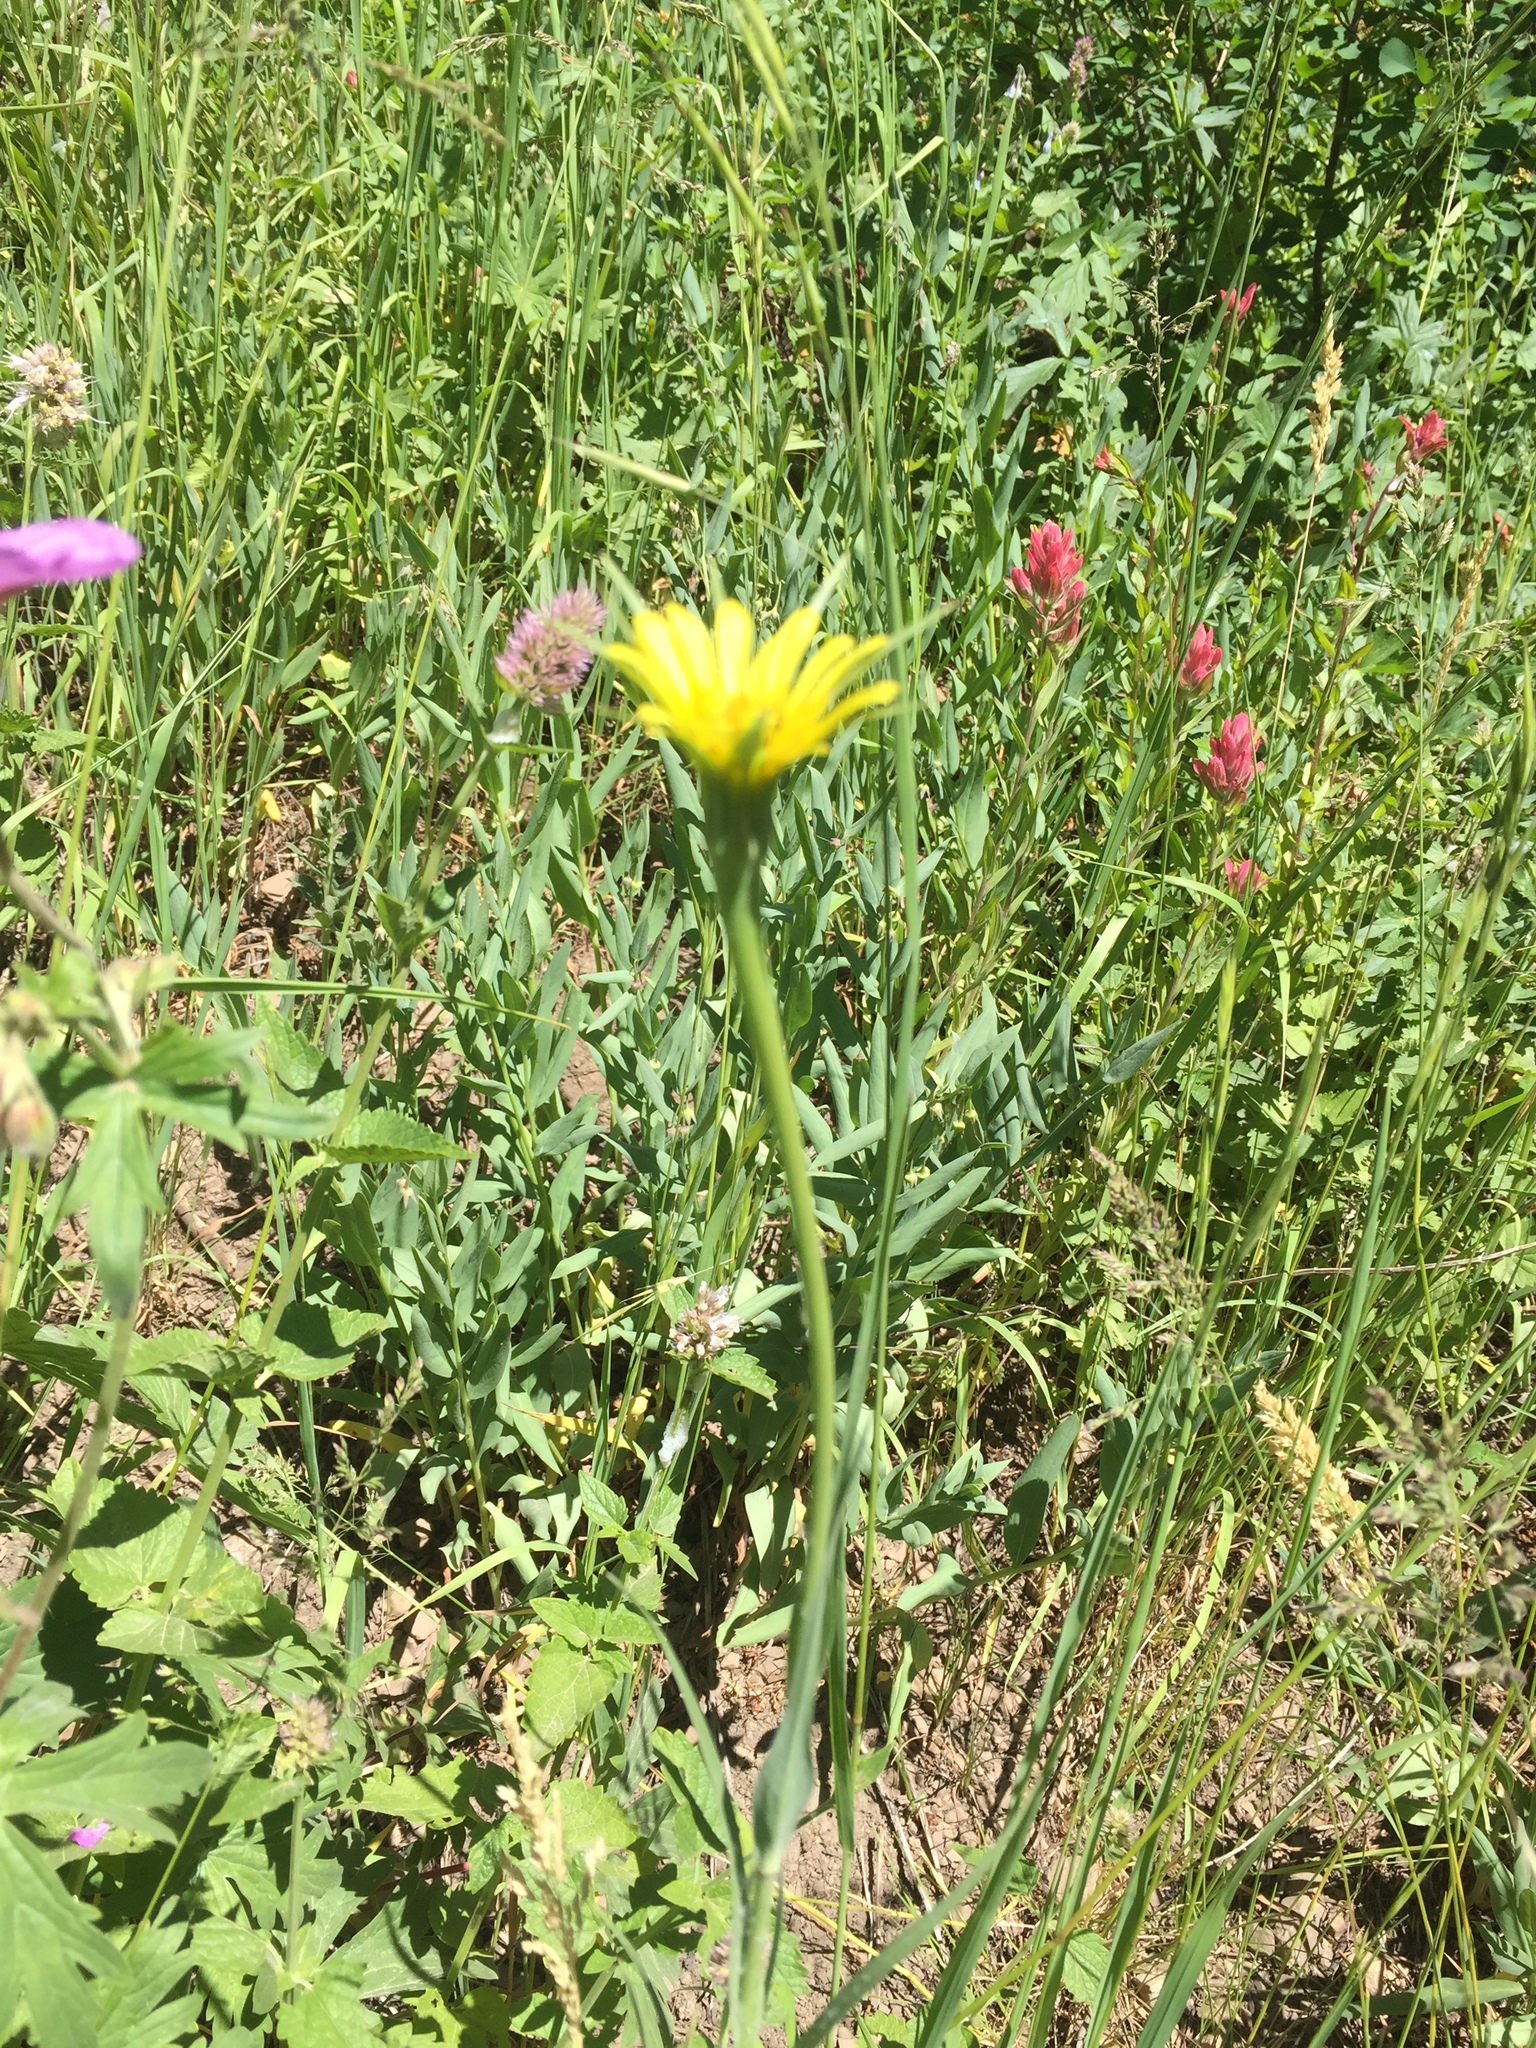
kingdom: Plantae
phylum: Tracheophyta
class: Magnoliopsida
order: Asterales
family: Asteraceae
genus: Tragopogon
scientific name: Tragopogon dubius
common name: Yellow salsify
